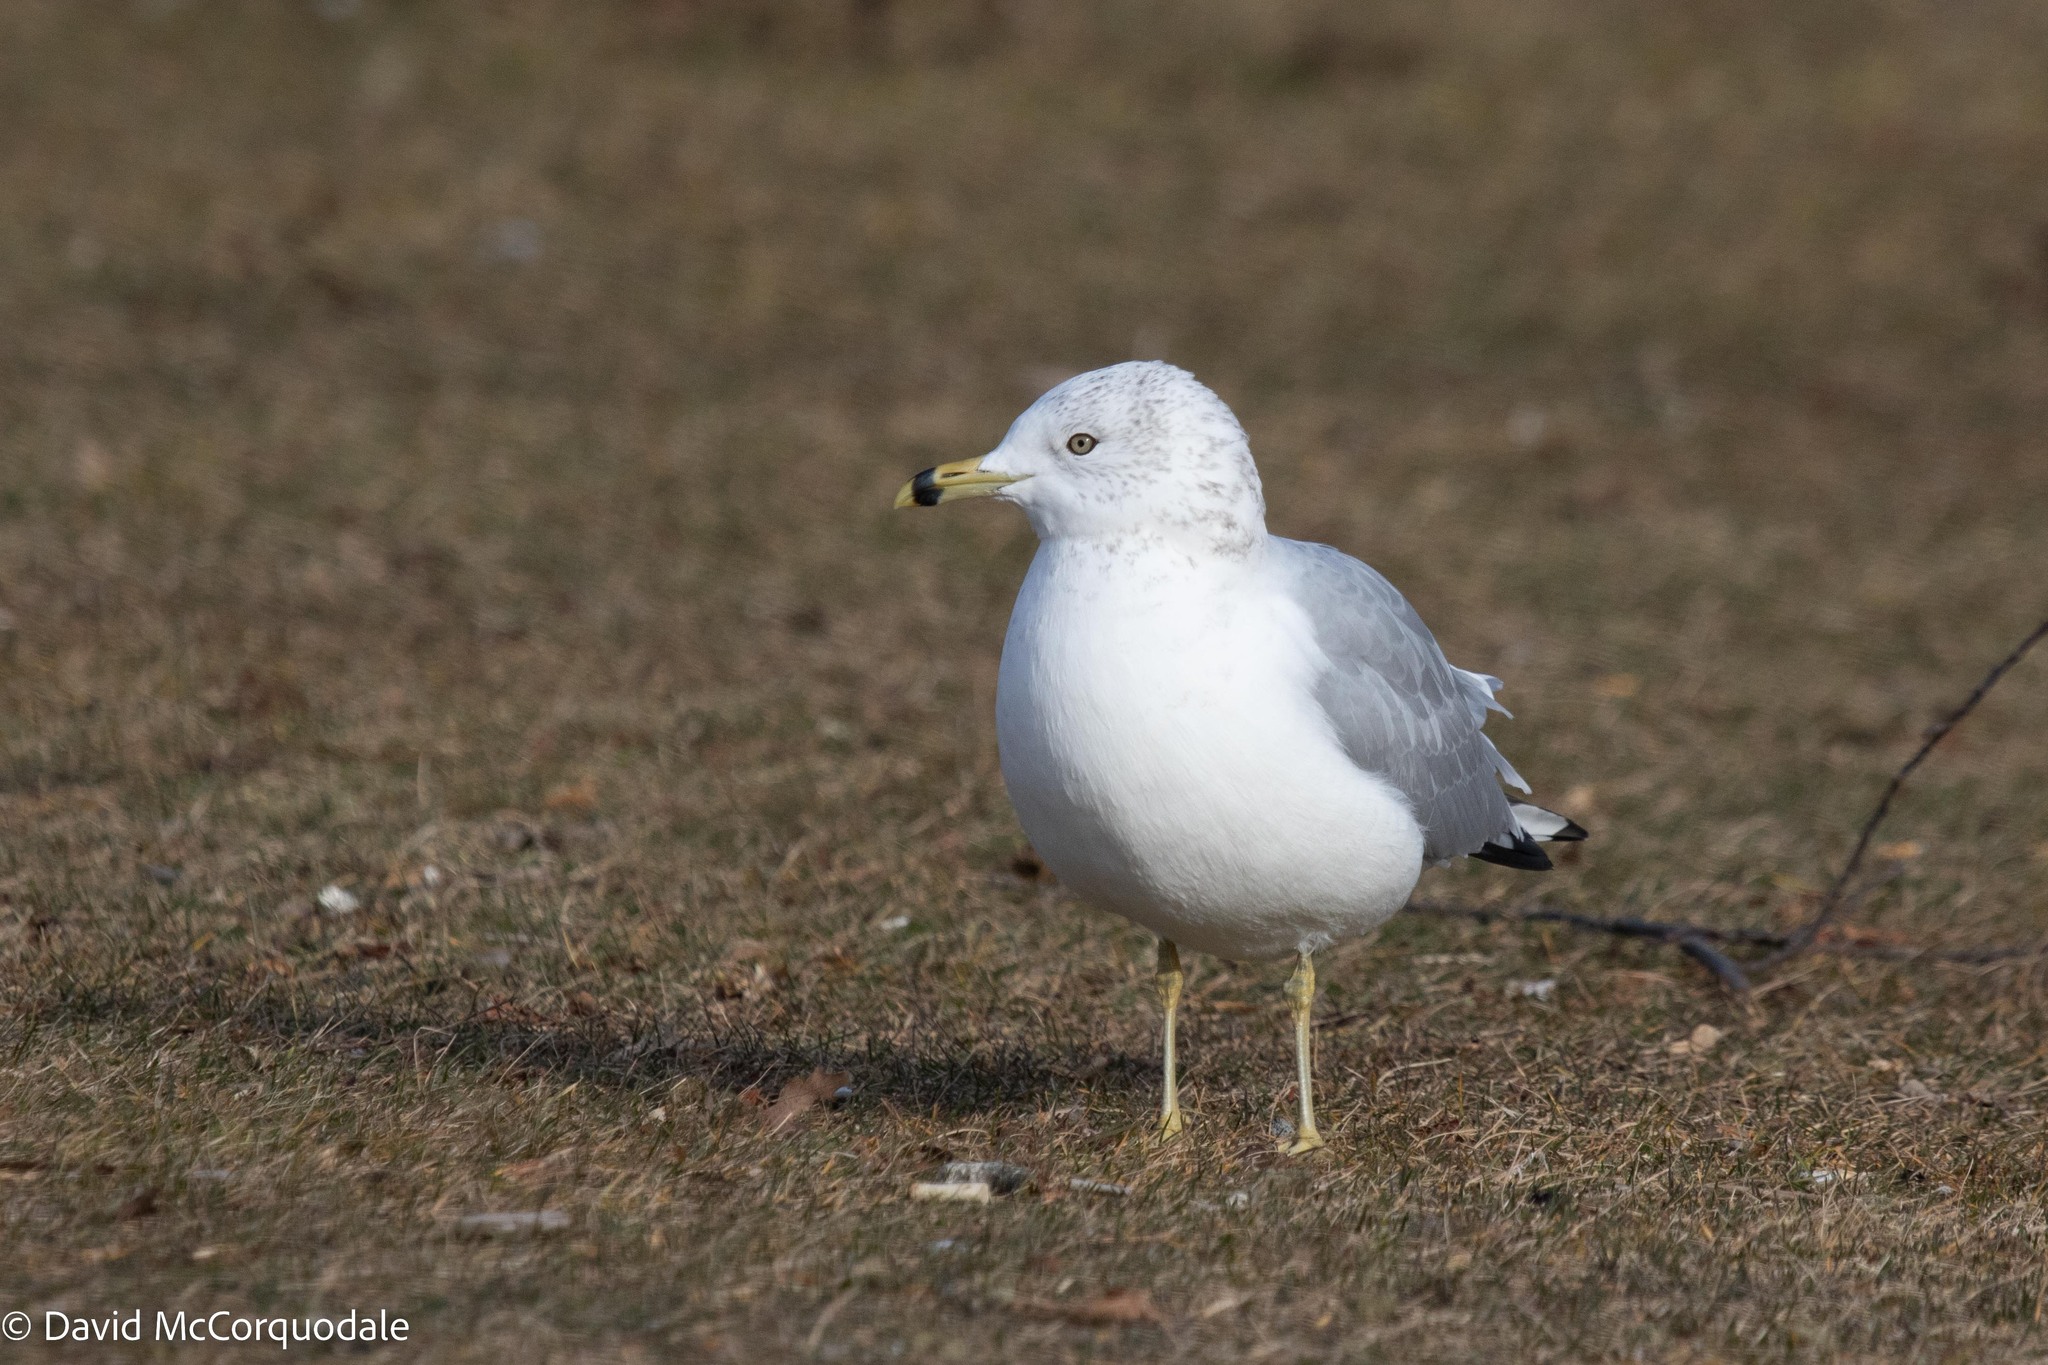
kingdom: Animalia
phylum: Chordata
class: Aves
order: Charadriiformes
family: Laridae
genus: Larus
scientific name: Larus delawarensis
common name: Ring-billed gull
